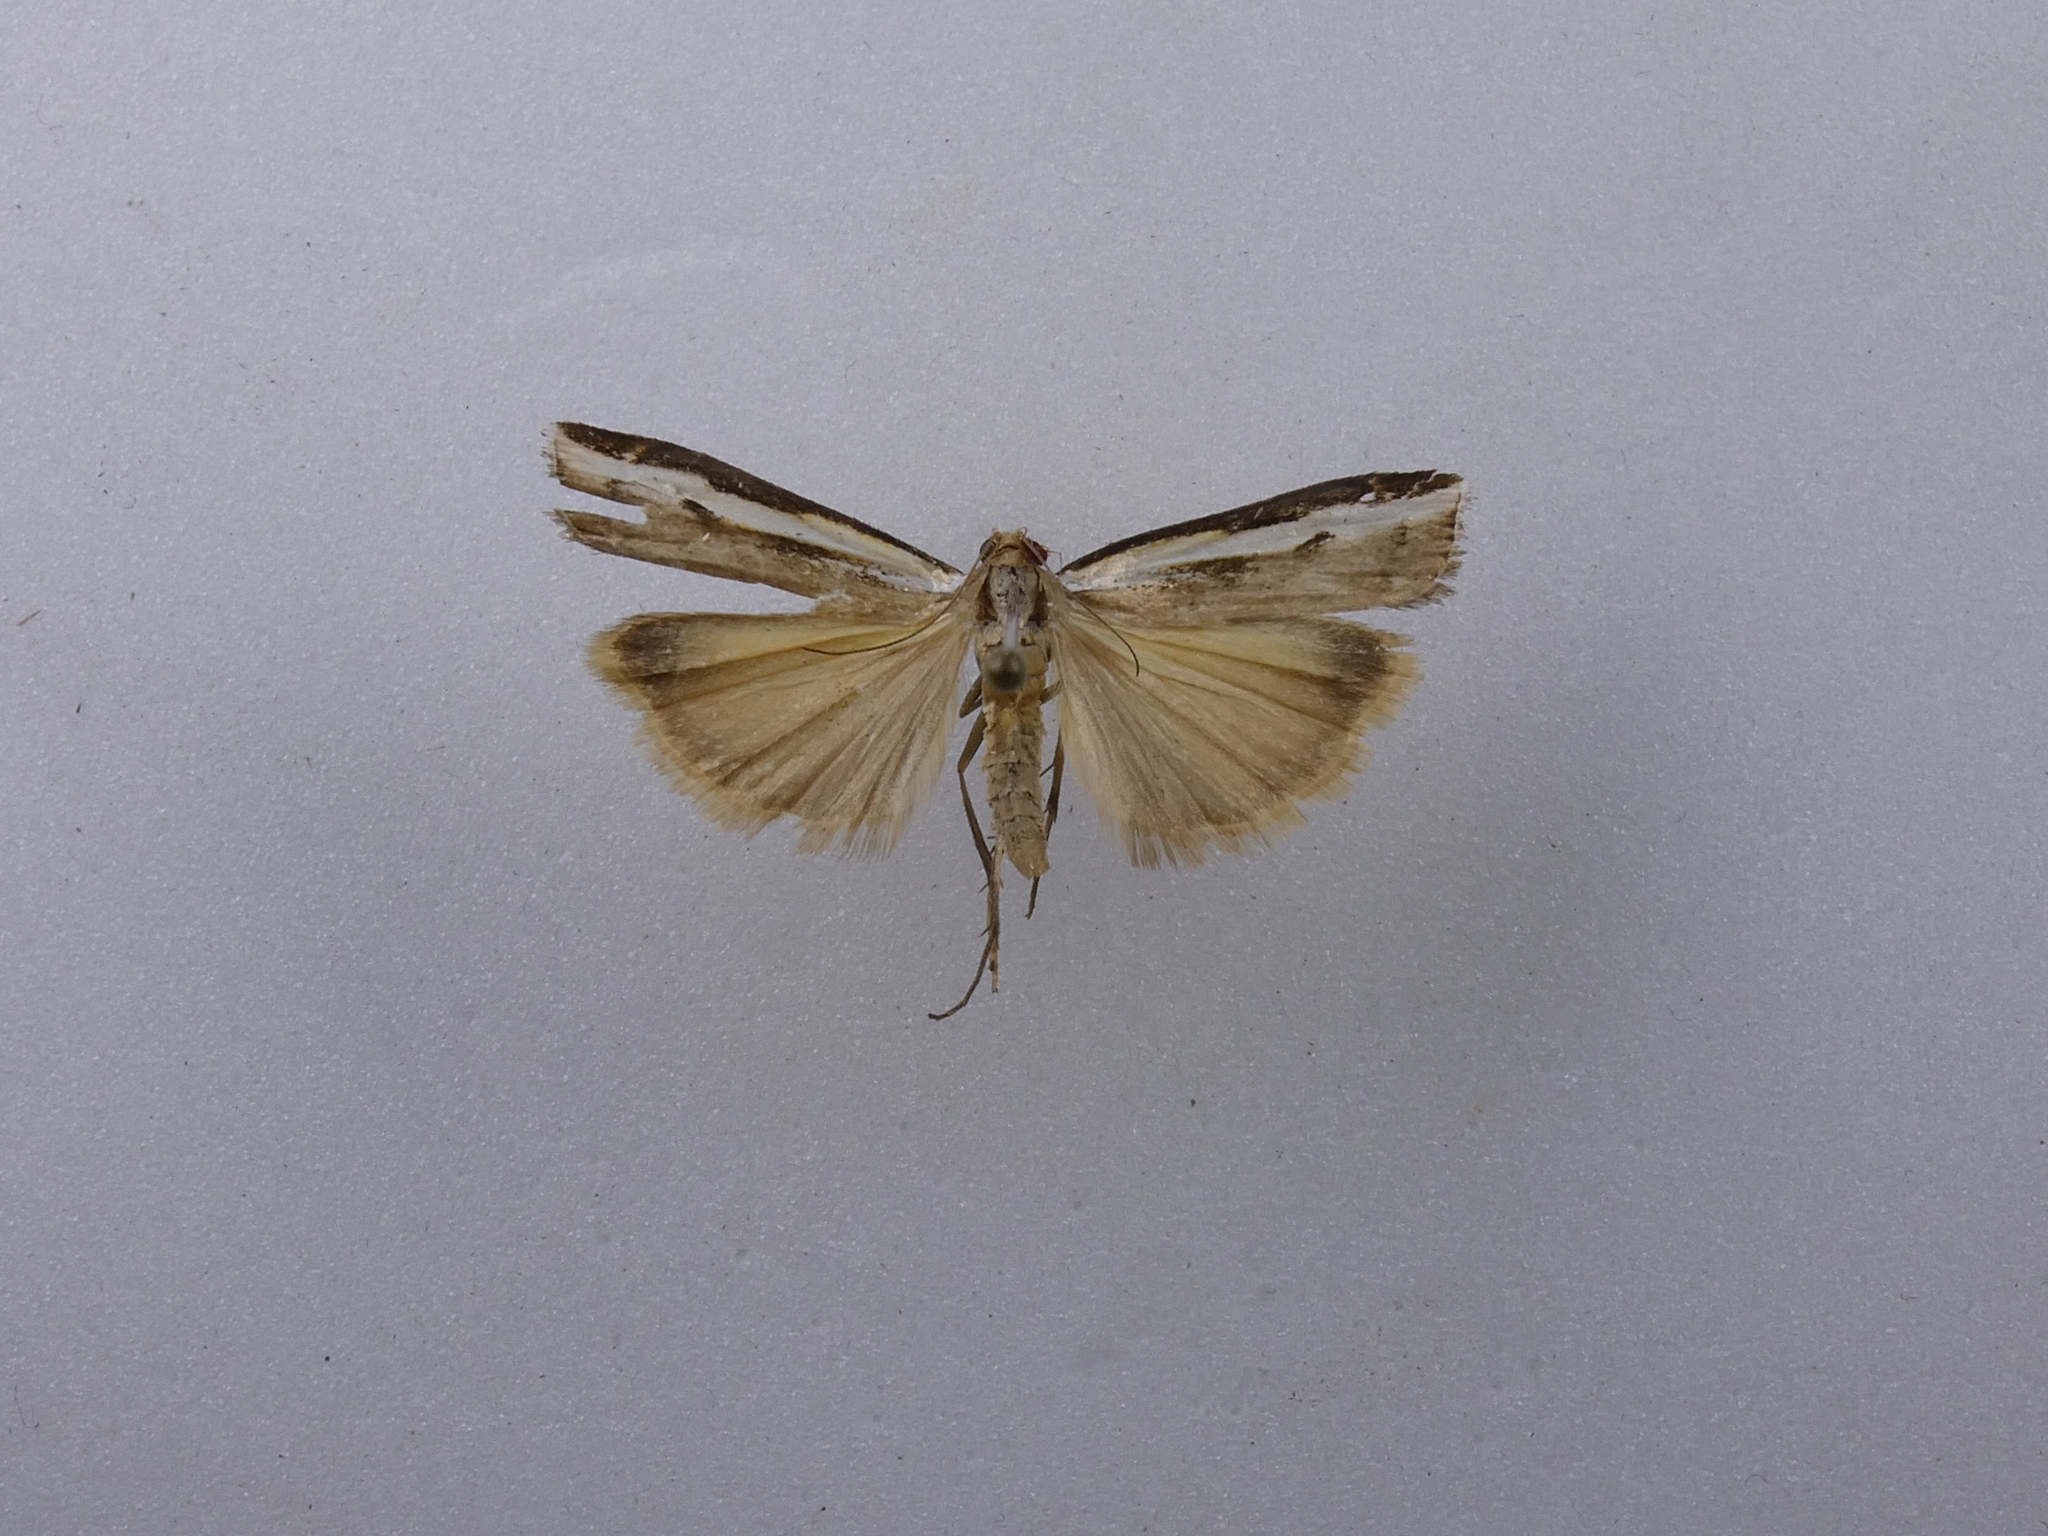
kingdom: Animalia
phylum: Arthropoda
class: Insecta
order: Lepidoptera
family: Crambidae
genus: Orocrambus
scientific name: Orocrambus flexuosellus
